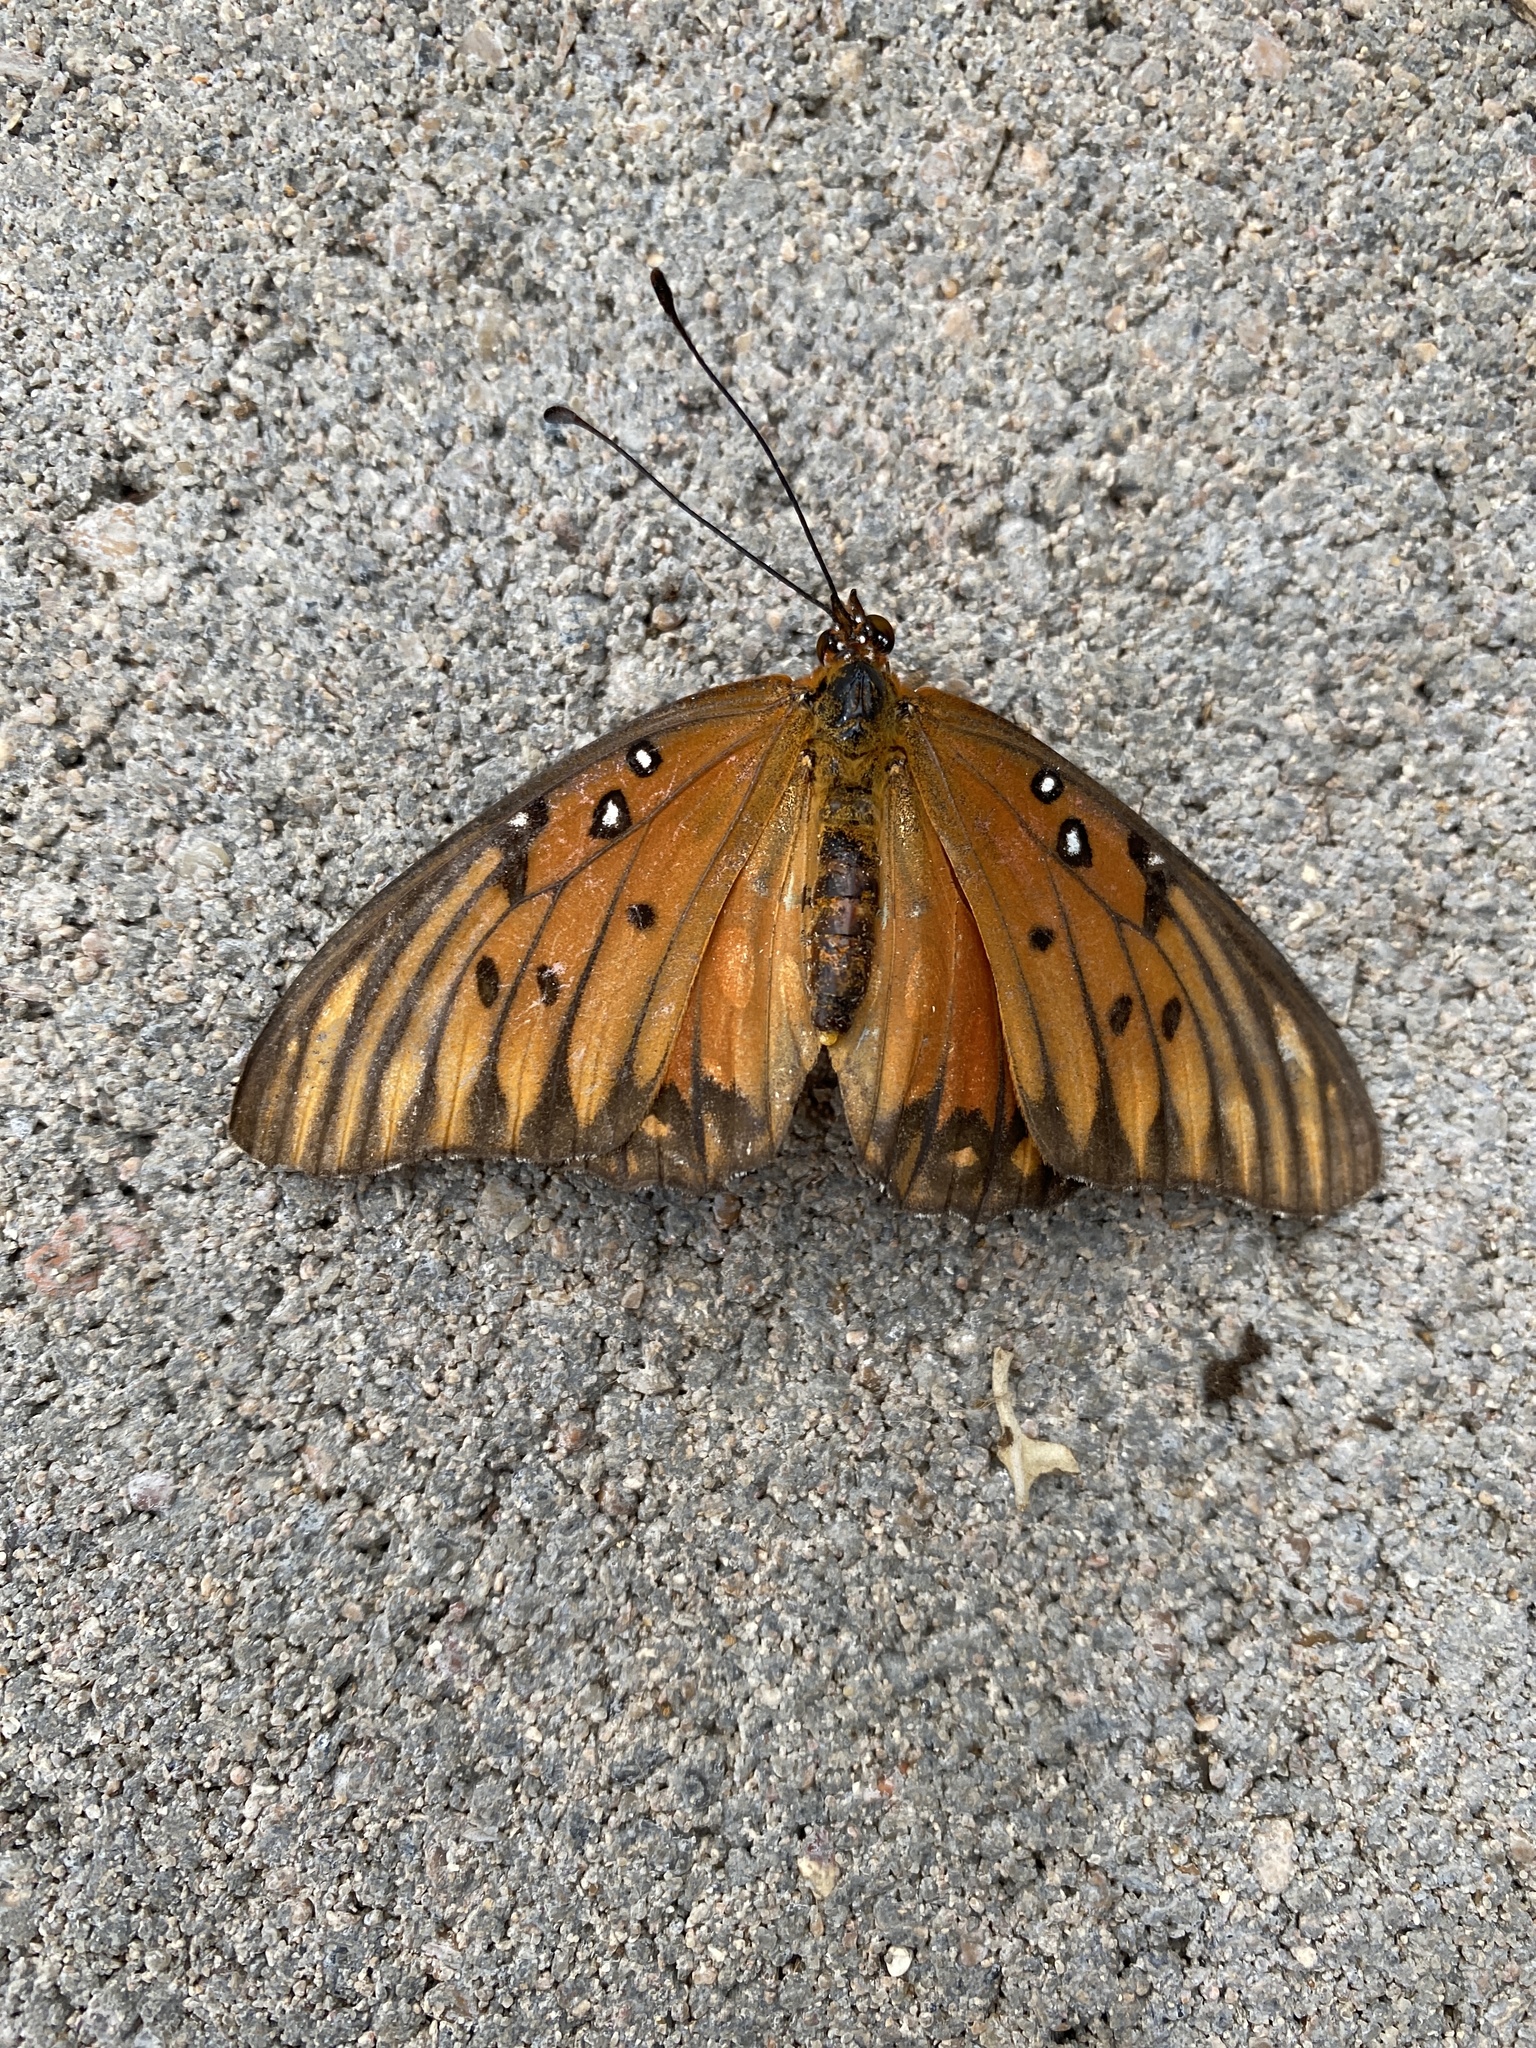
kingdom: Animalia
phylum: Arthropoda
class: Insecta
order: Lepidoptera
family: Nymphalidae
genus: Dione
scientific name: Dione vanillae
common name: Gulf fritillary
